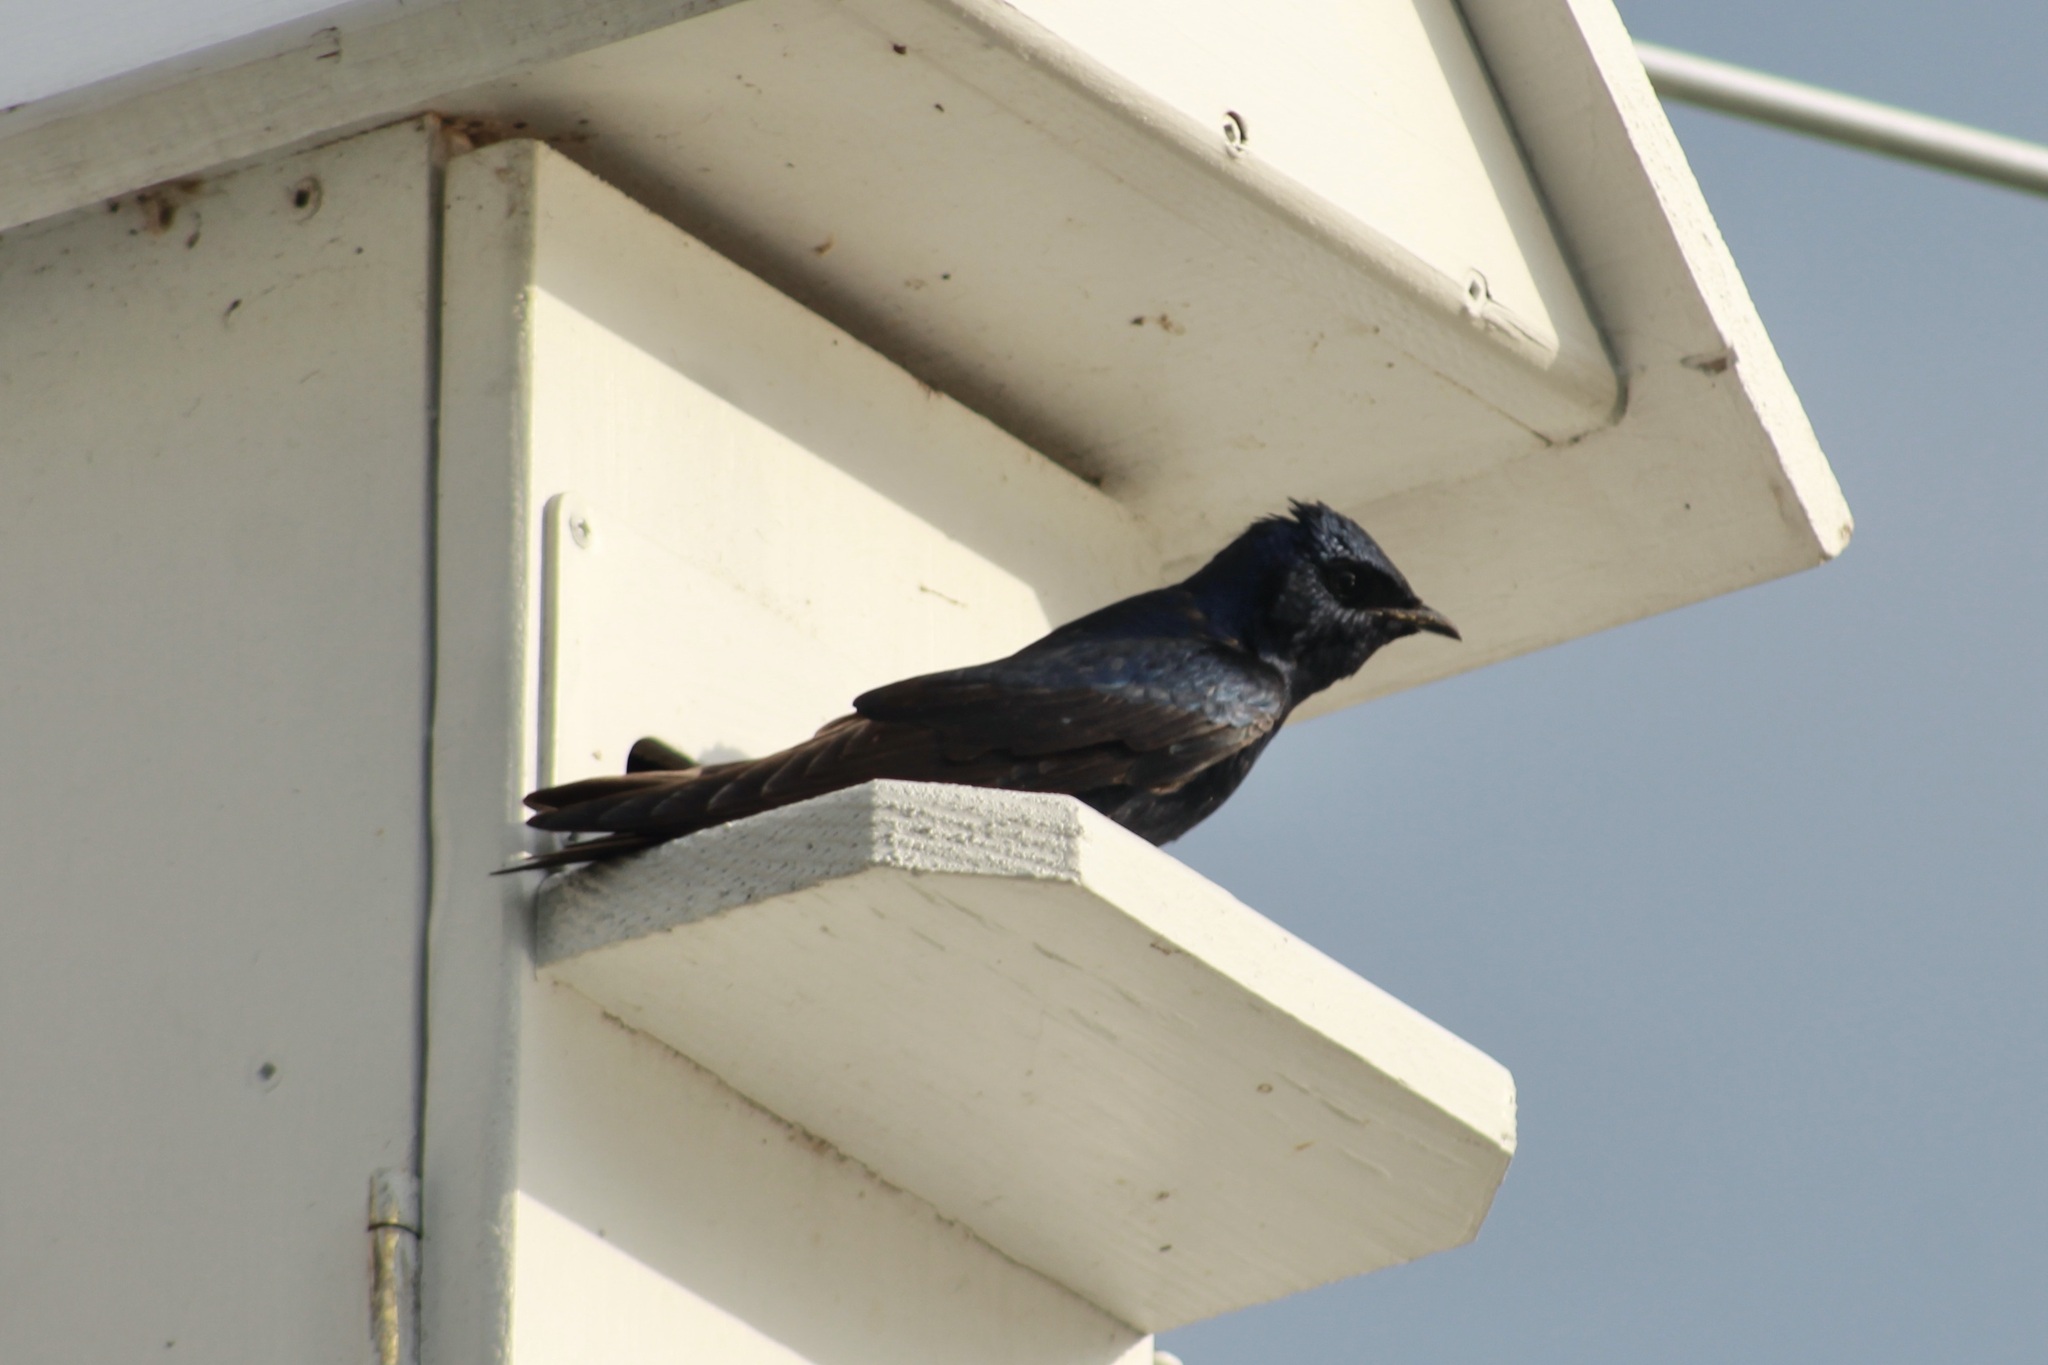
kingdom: Animalia
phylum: Chordata
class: Aves
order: Passeriformes
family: Hirundinidae
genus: Progne
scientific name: Progne subis
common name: Purple martin
